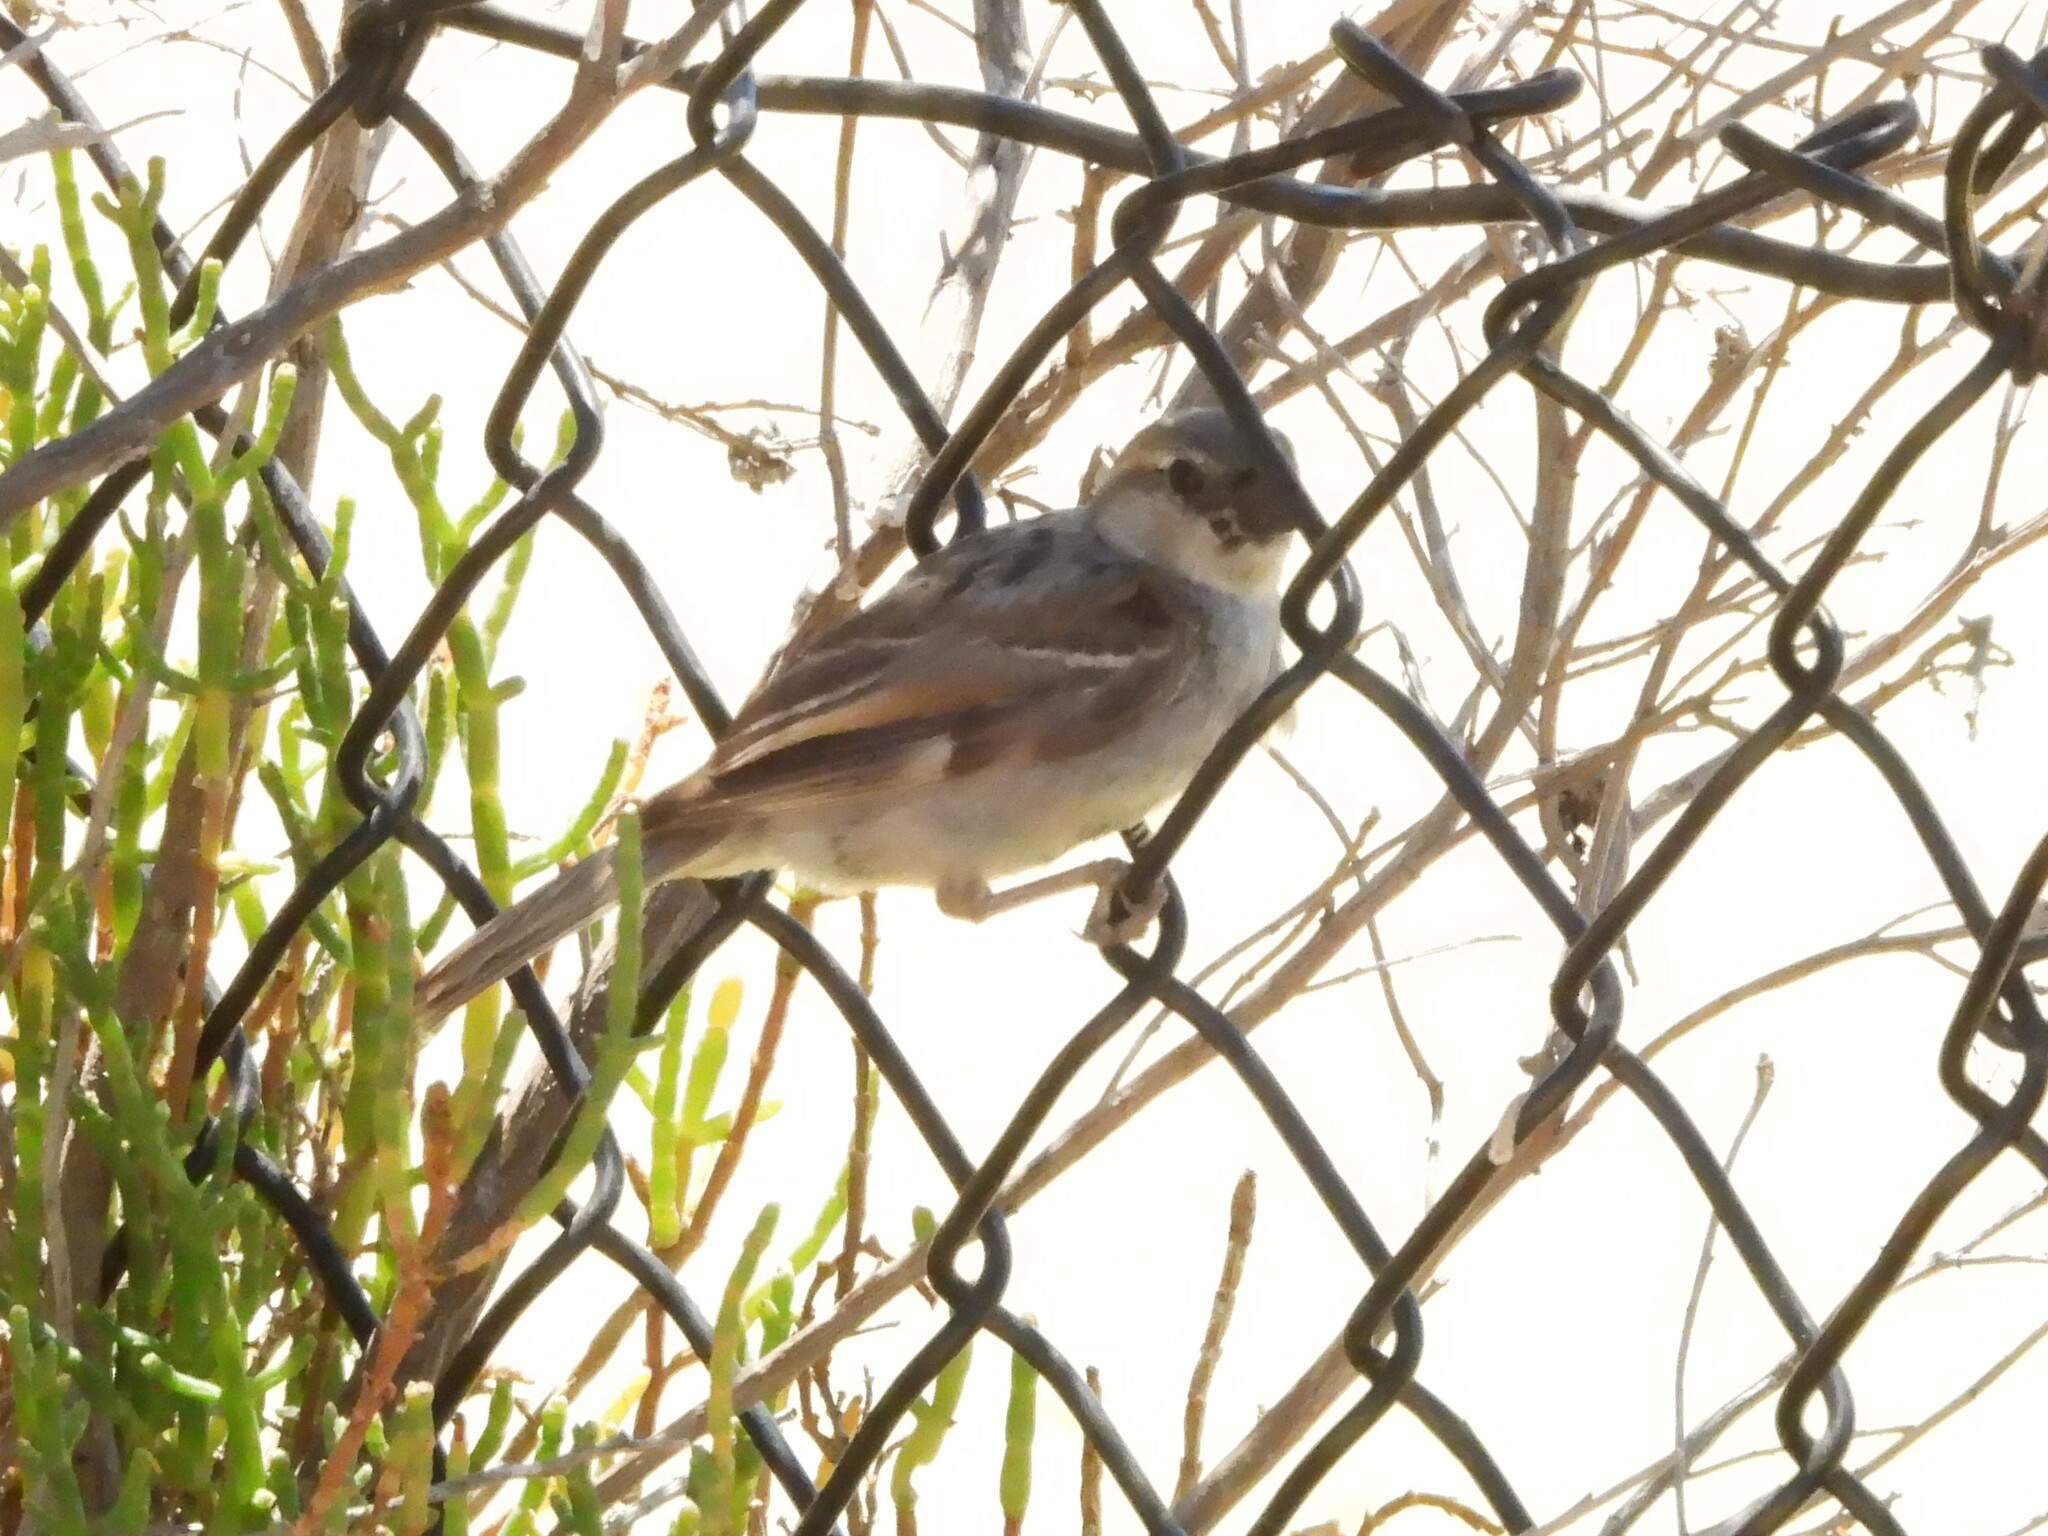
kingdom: Animalia
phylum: Chordata
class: Aves
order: Passeriformes
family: Passeridae
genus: Passer
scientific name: Passer domesticus
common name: House sparrow
